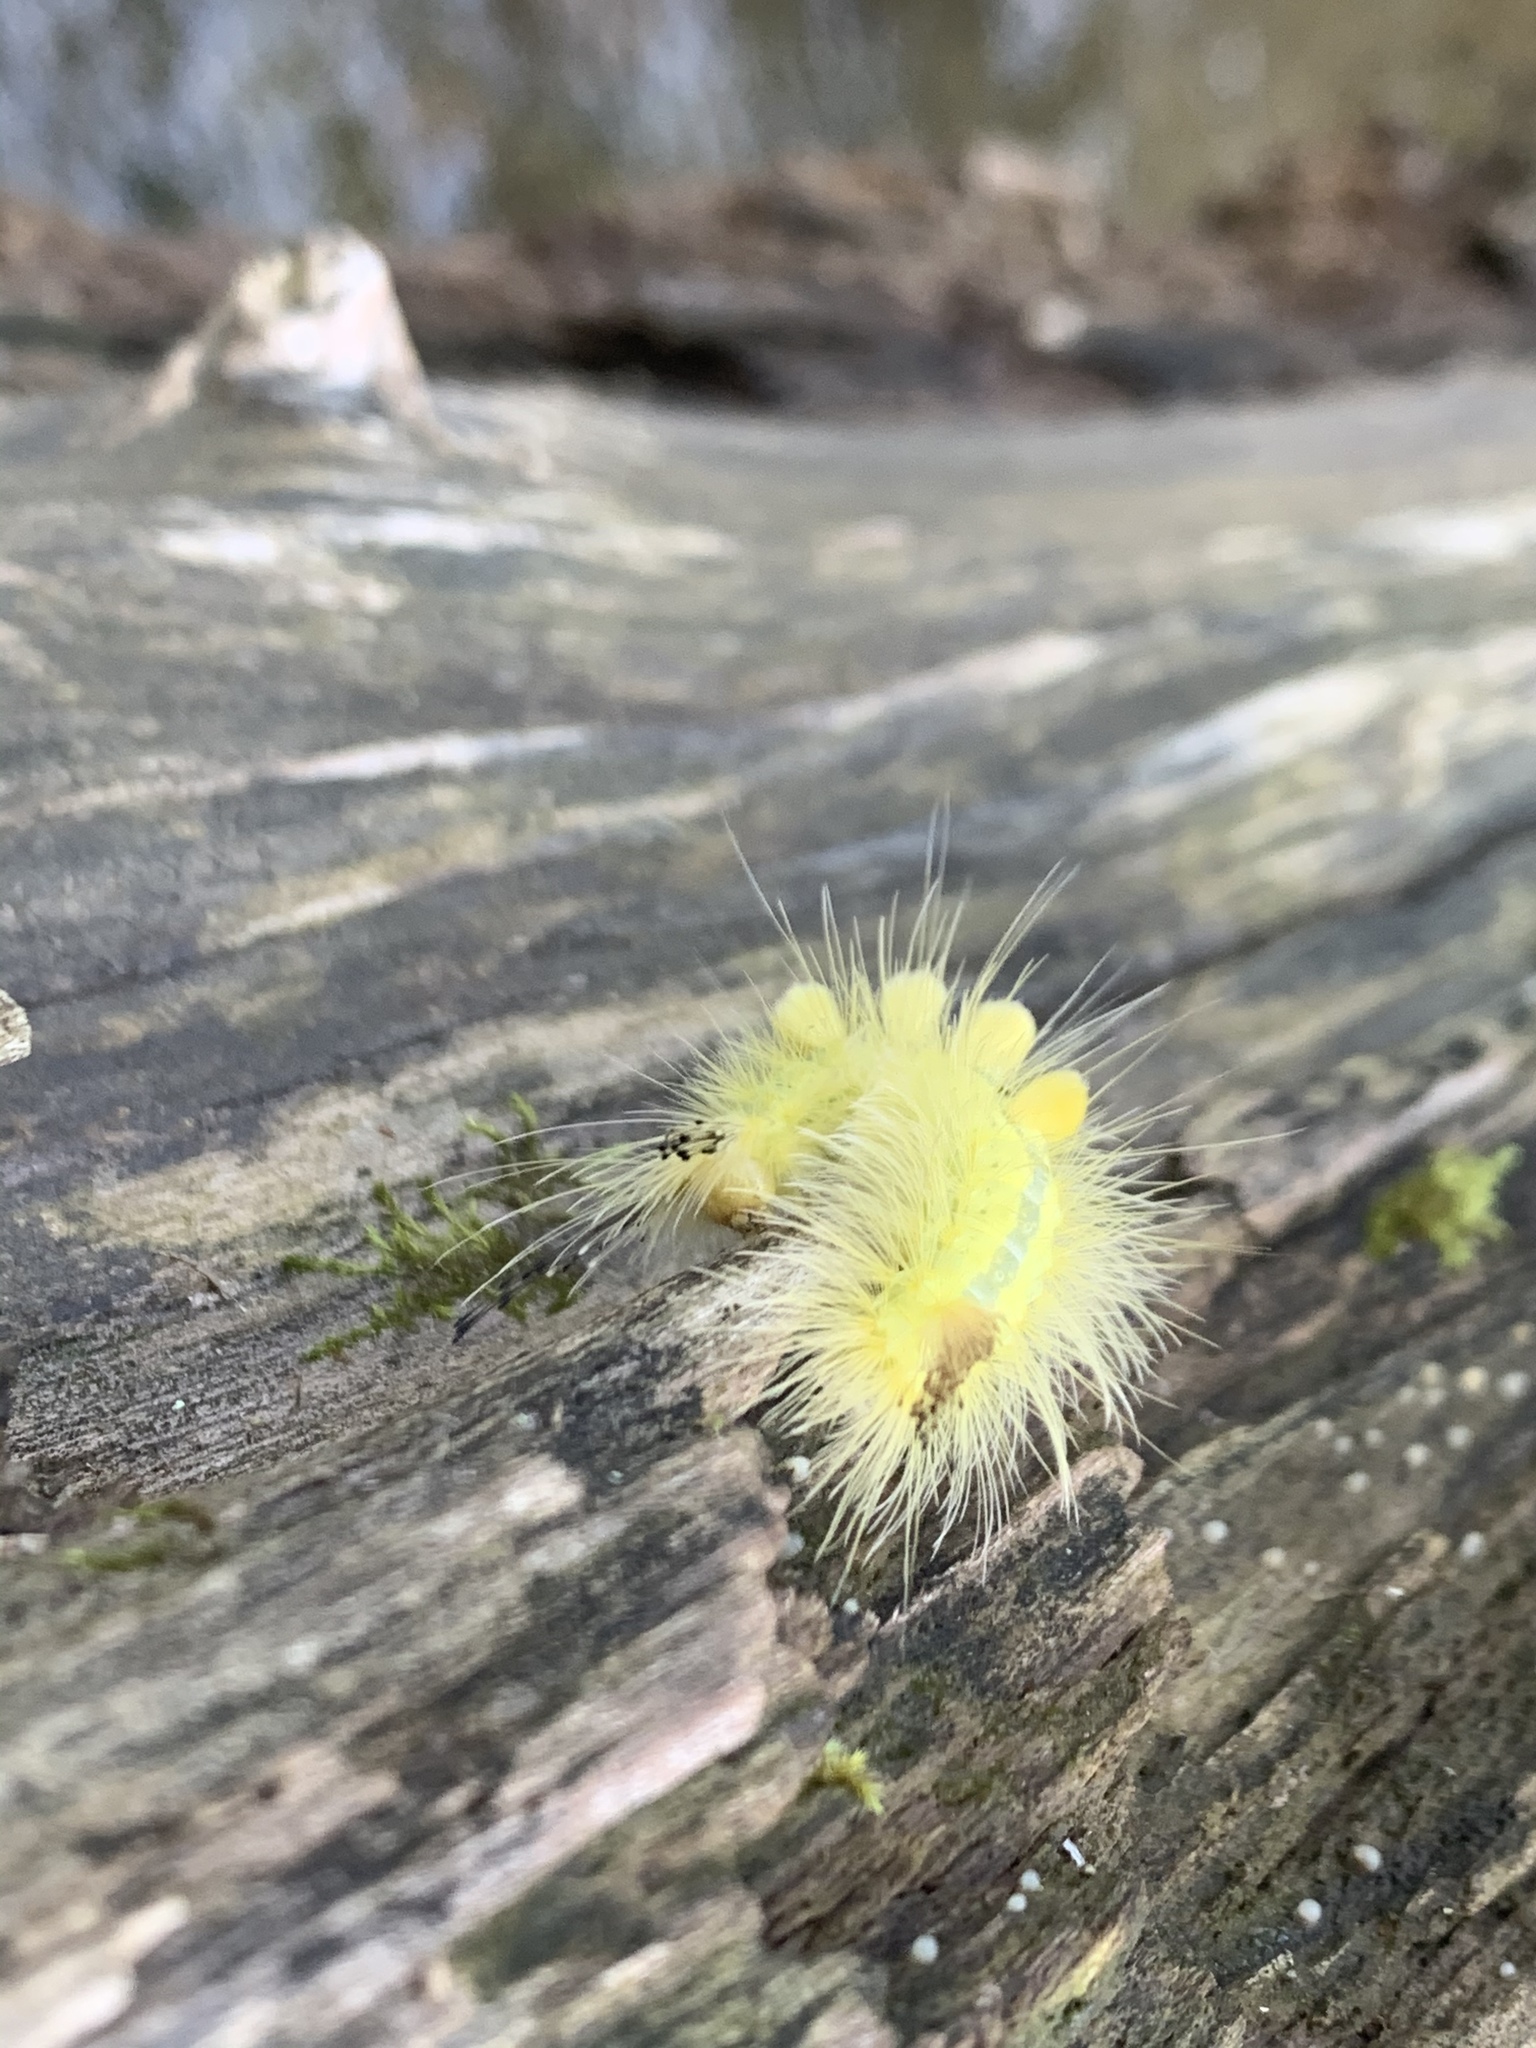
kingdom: Animalia
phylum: Arthropoda
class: Insecta
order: Lepidoptera
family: Erebidae
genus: Orgyia
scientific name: Orgyia definita
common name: Definite tussock moth
